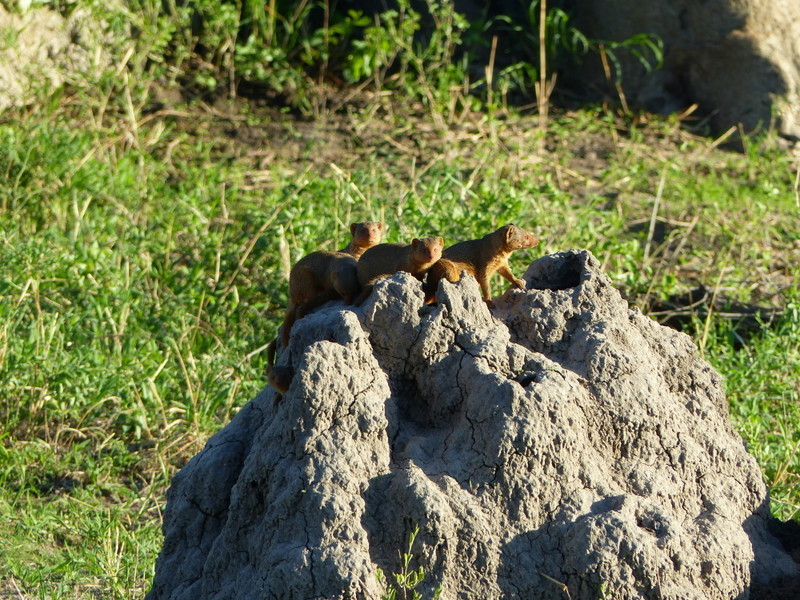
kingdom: Animalia
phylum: Chordata
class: Mammalia
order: Carnivora
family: Herpestidae
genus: Helogale
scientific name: Helogale parvula
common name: Common dwarf mongoose
